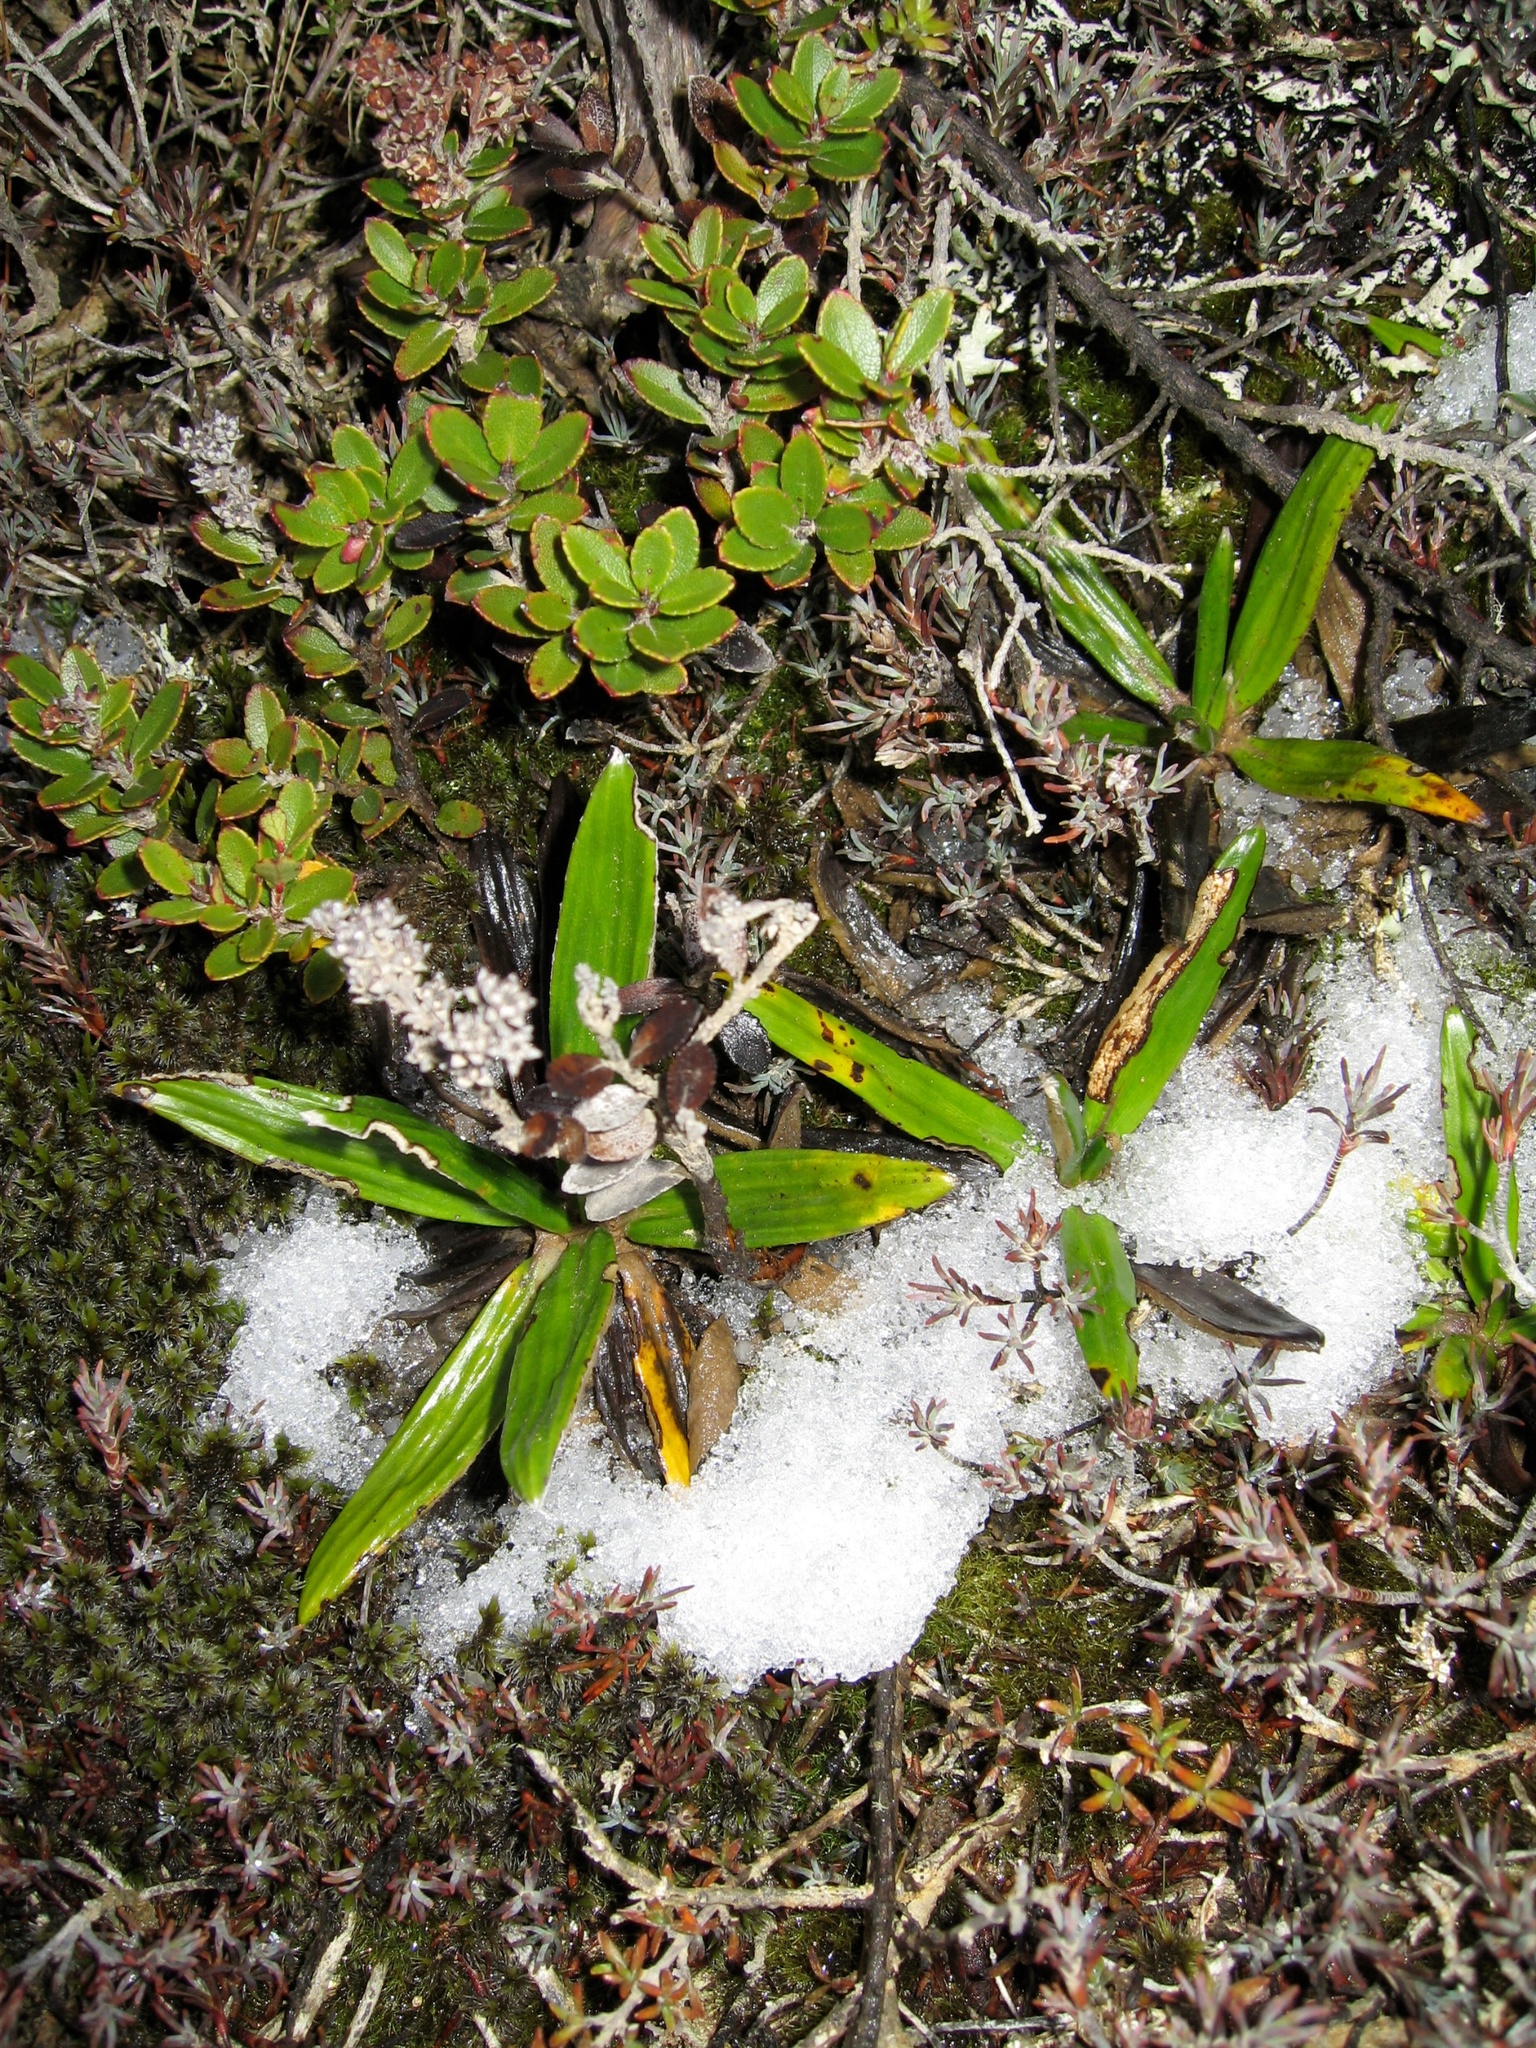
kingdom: Plantae
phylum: Tracheophyta
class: Magnoliopsida
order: Asterales
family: Asteraceae
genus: Celmisia
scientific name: Celmisia spectabilis
